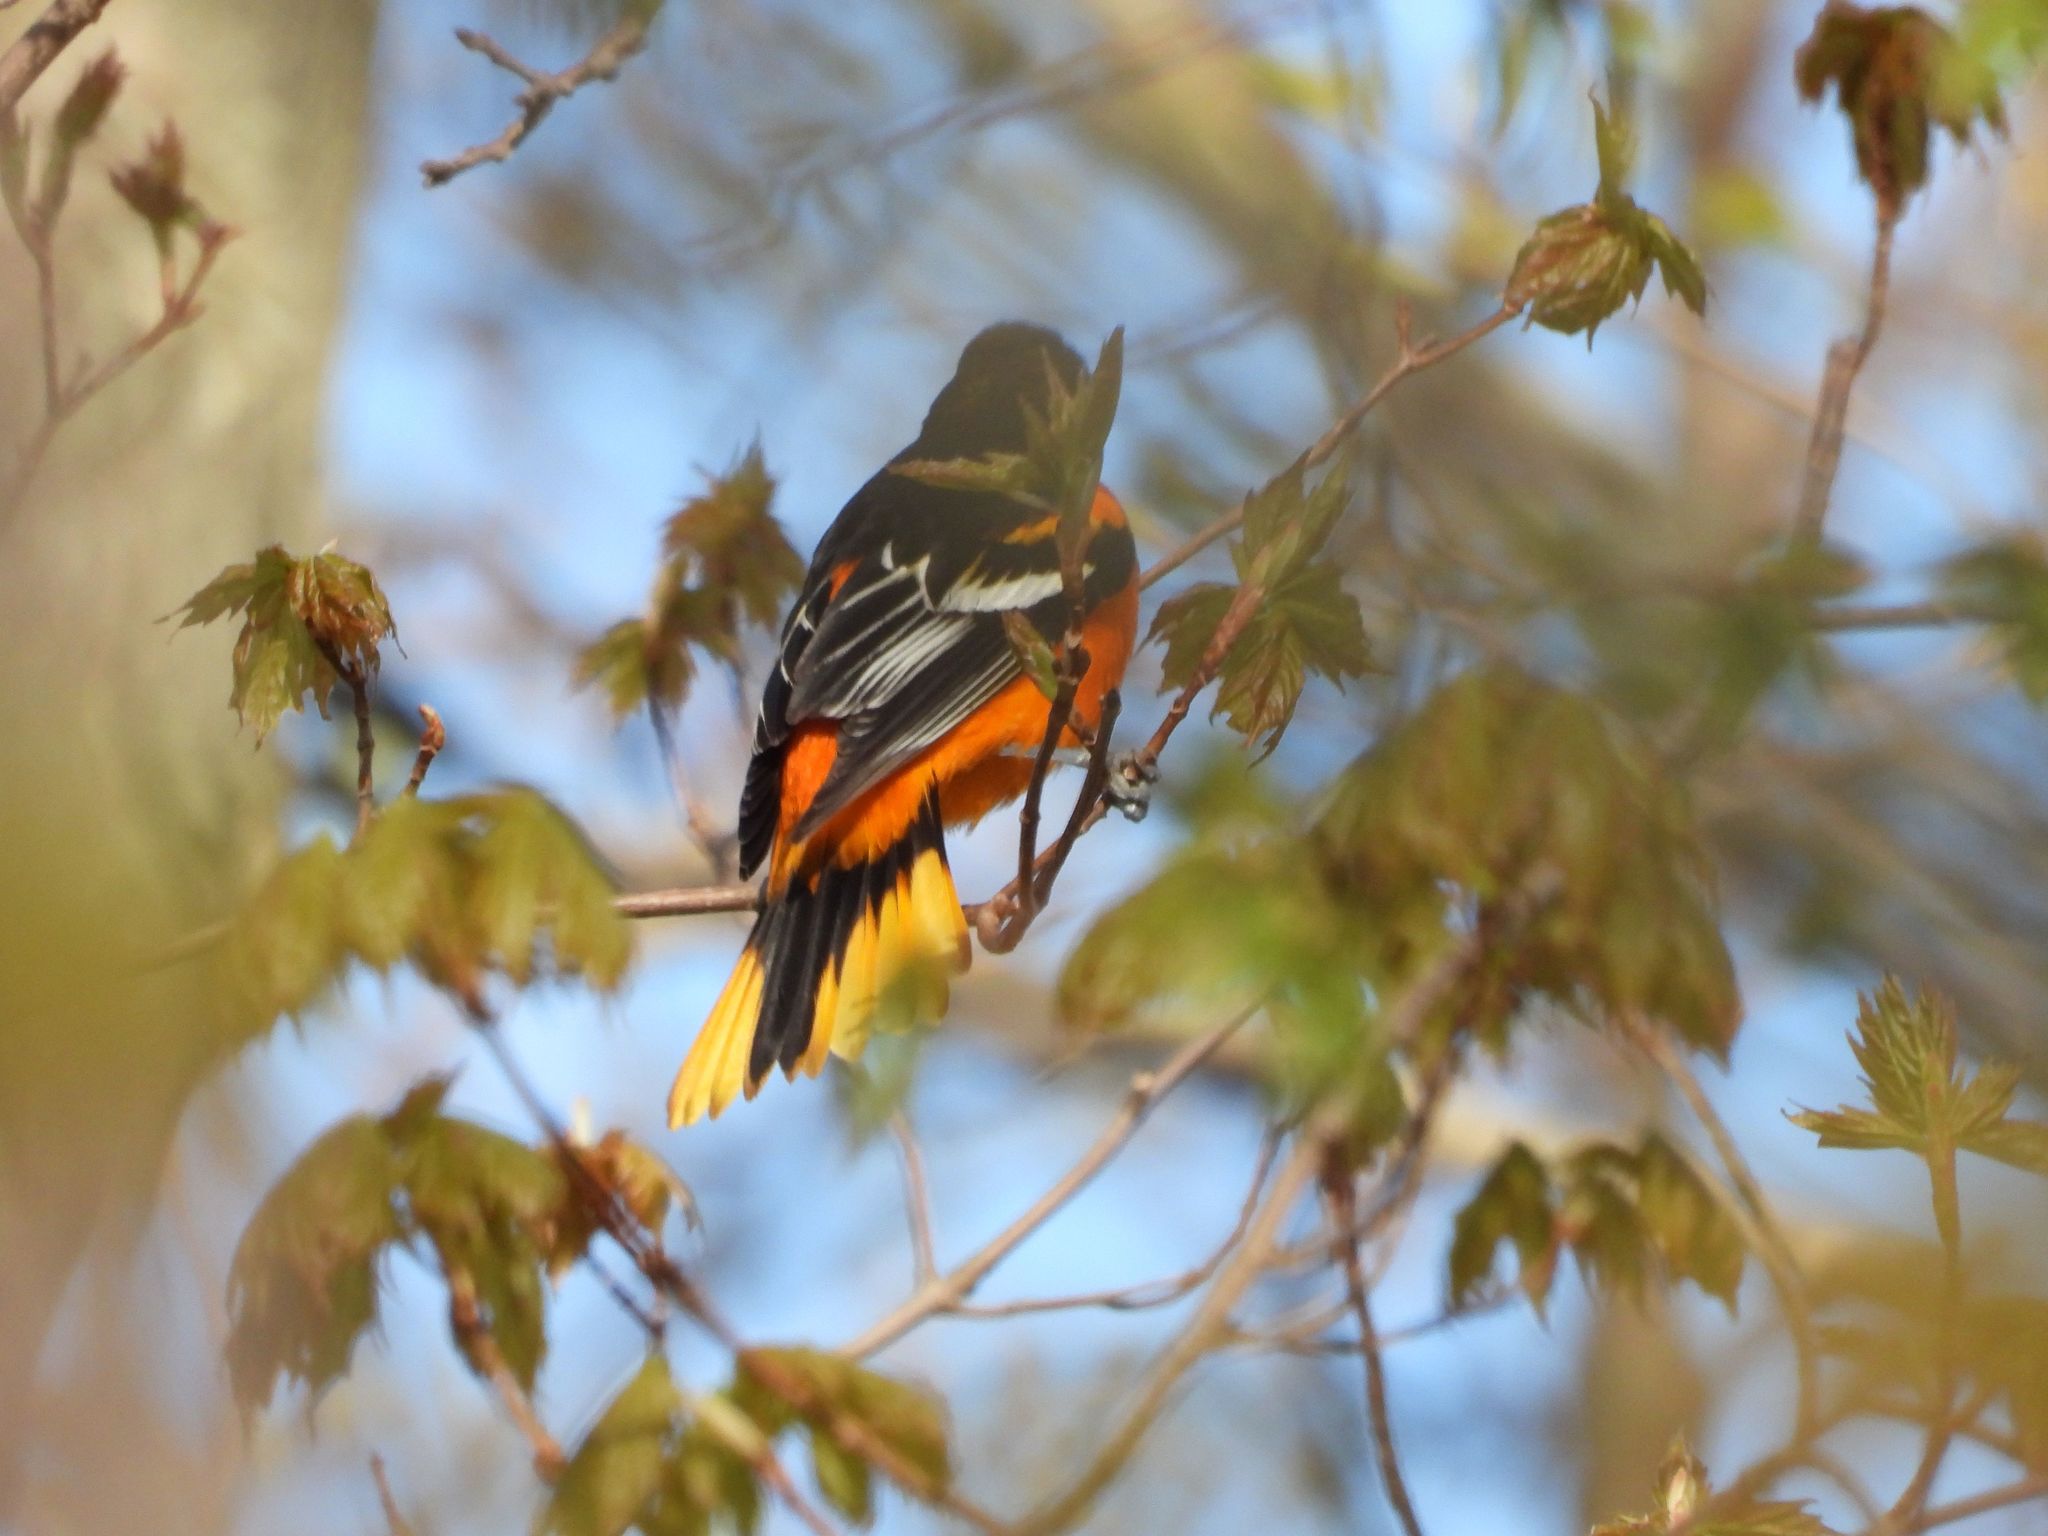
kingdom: Animalia
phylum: Chordata
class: Aves
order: Passeriformes
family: Icteridae
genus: Icterus
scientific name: Icterus galbula
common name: Baltimore oriole
